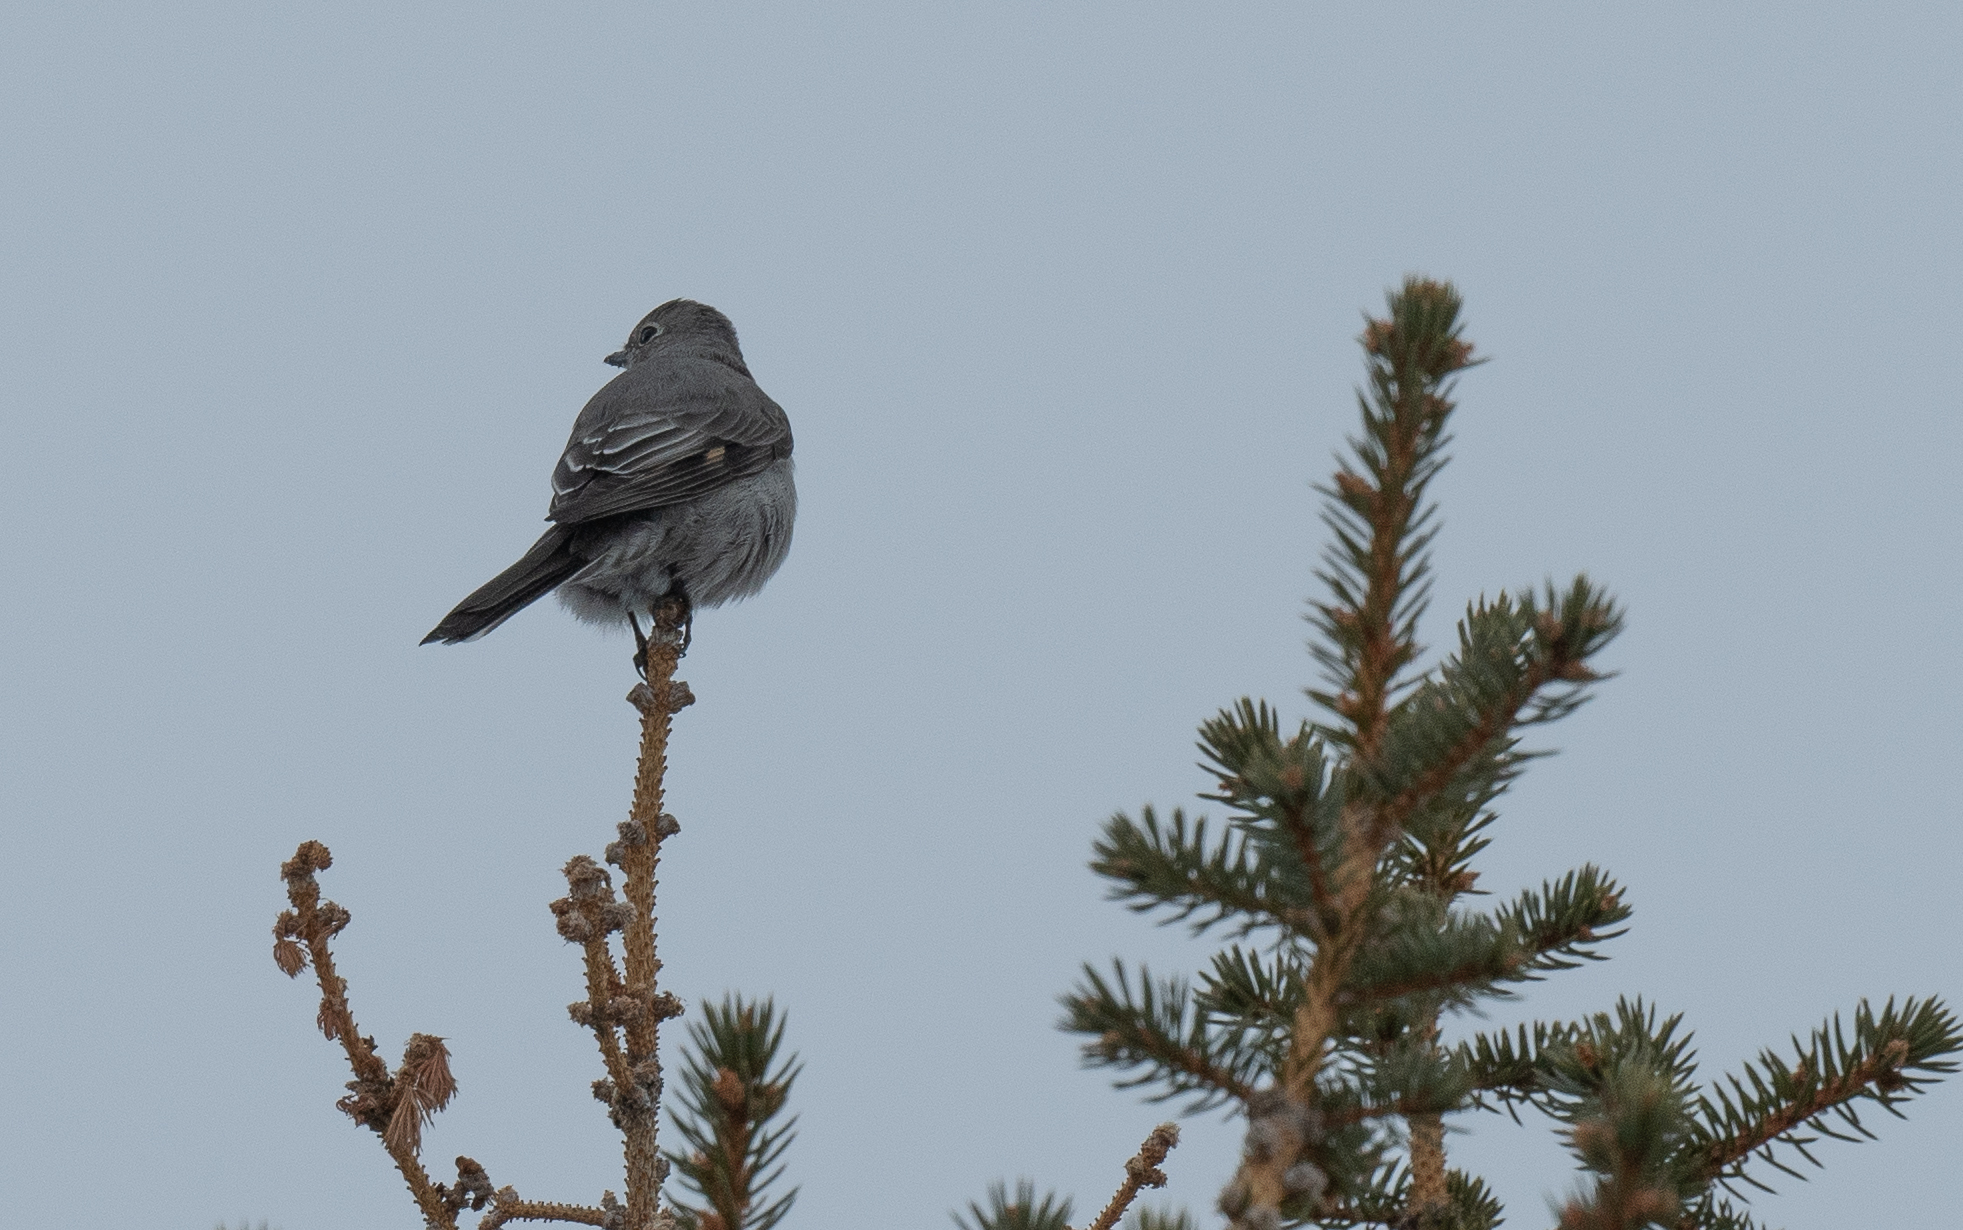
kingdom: Animalia
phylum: Chordata
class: Aves
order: Passeriformes
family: Turdidae
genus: Myadestes
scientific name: Myadestes townsendi
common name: Townsend's solitaire
